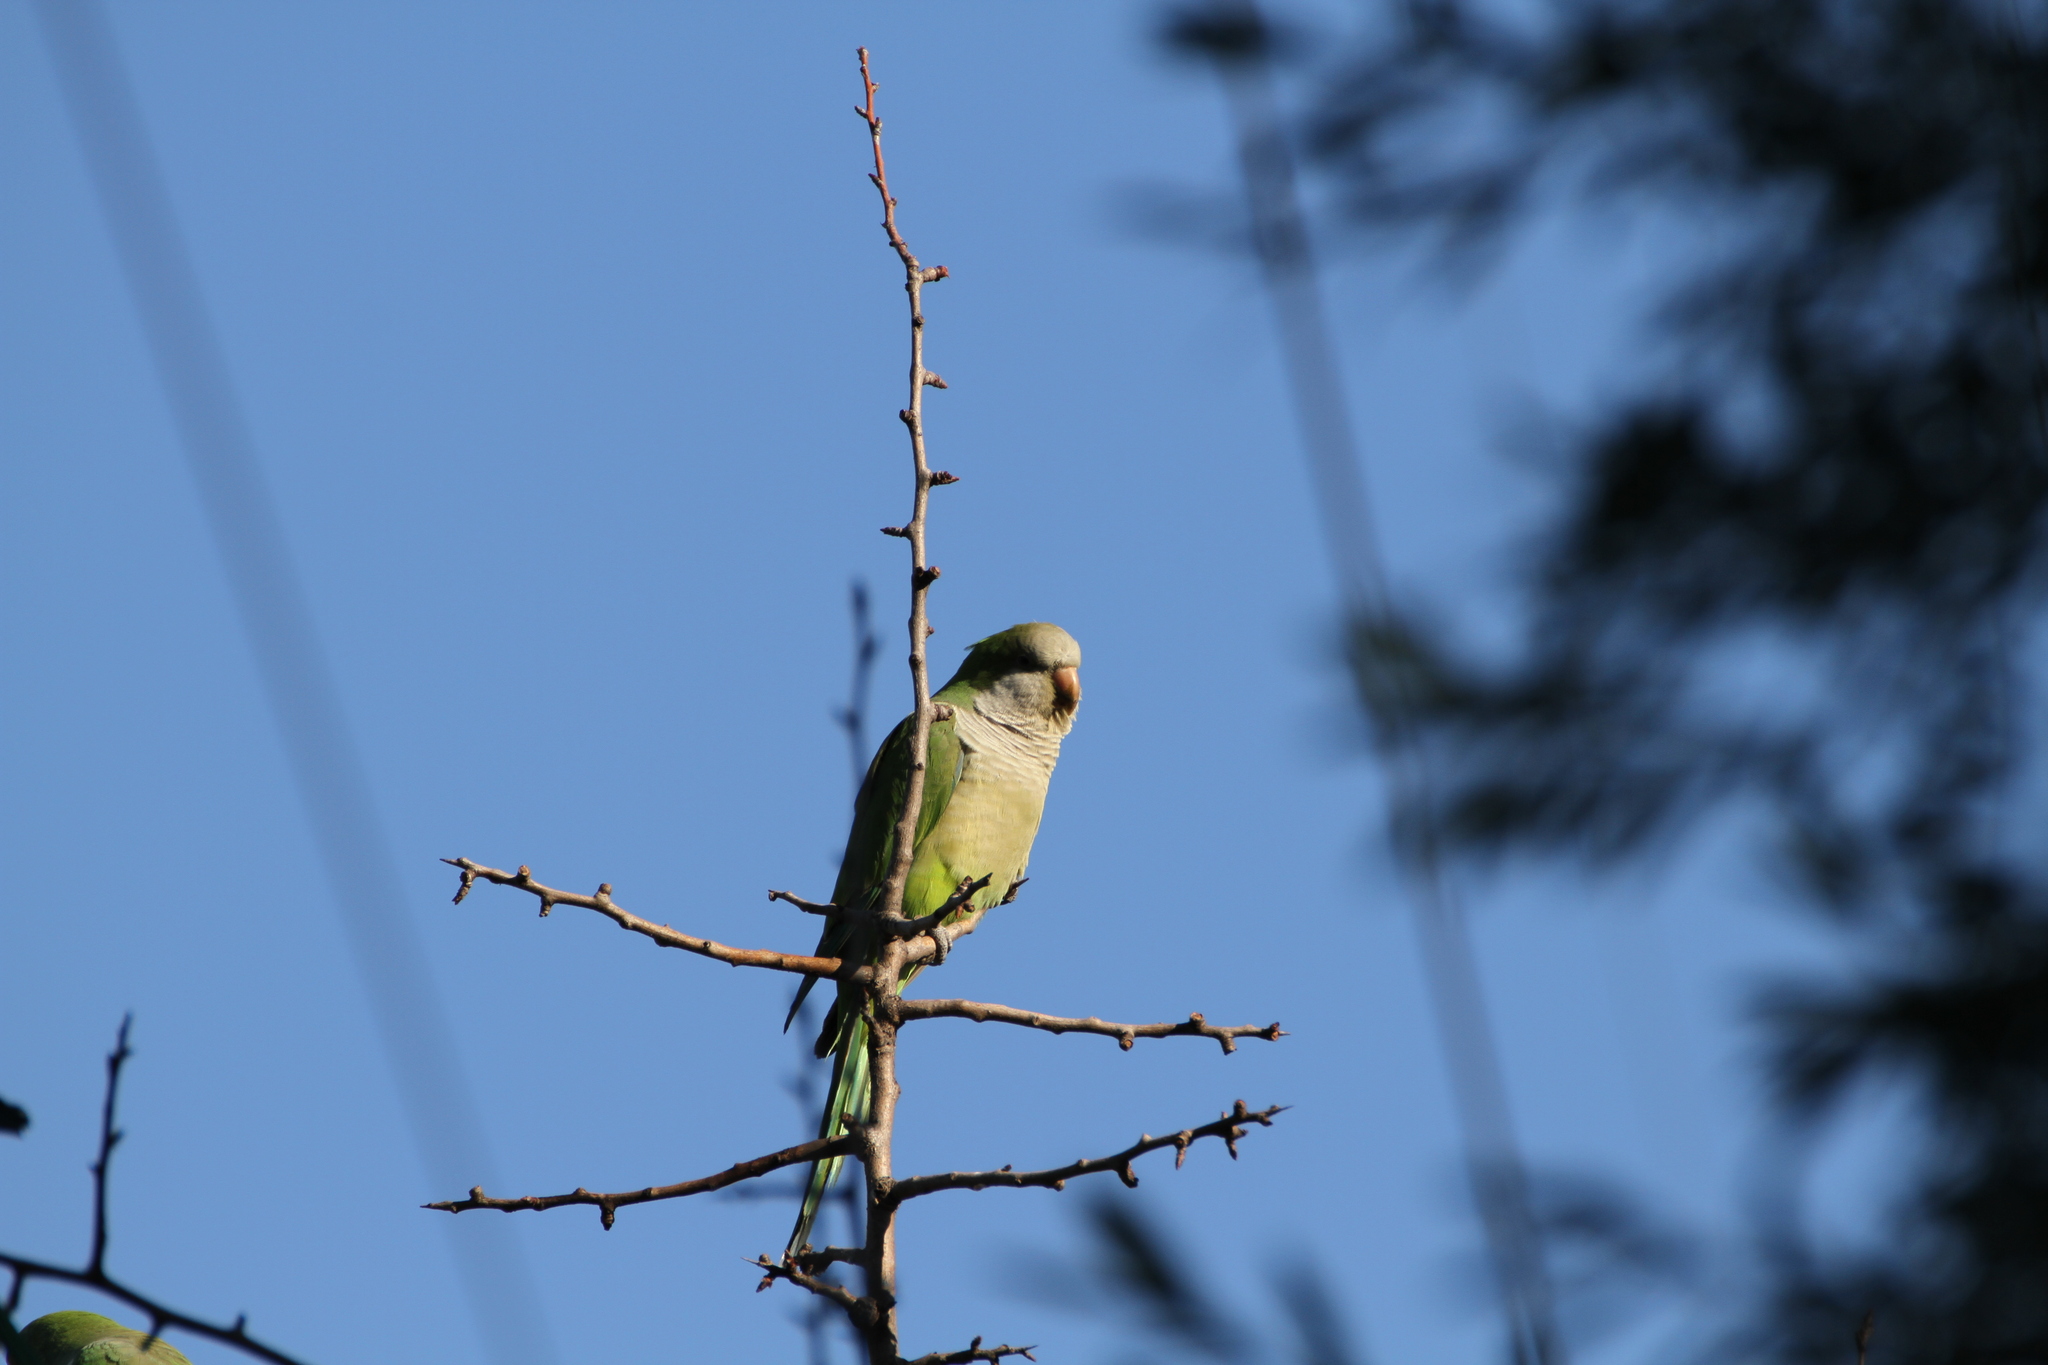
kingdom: Animalia
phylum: Chordata
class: Aves
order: Psittaciformes
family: Psittacidae
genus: Myiopsitta
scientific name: Myiopsitta monachus
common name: Monk parakeet
